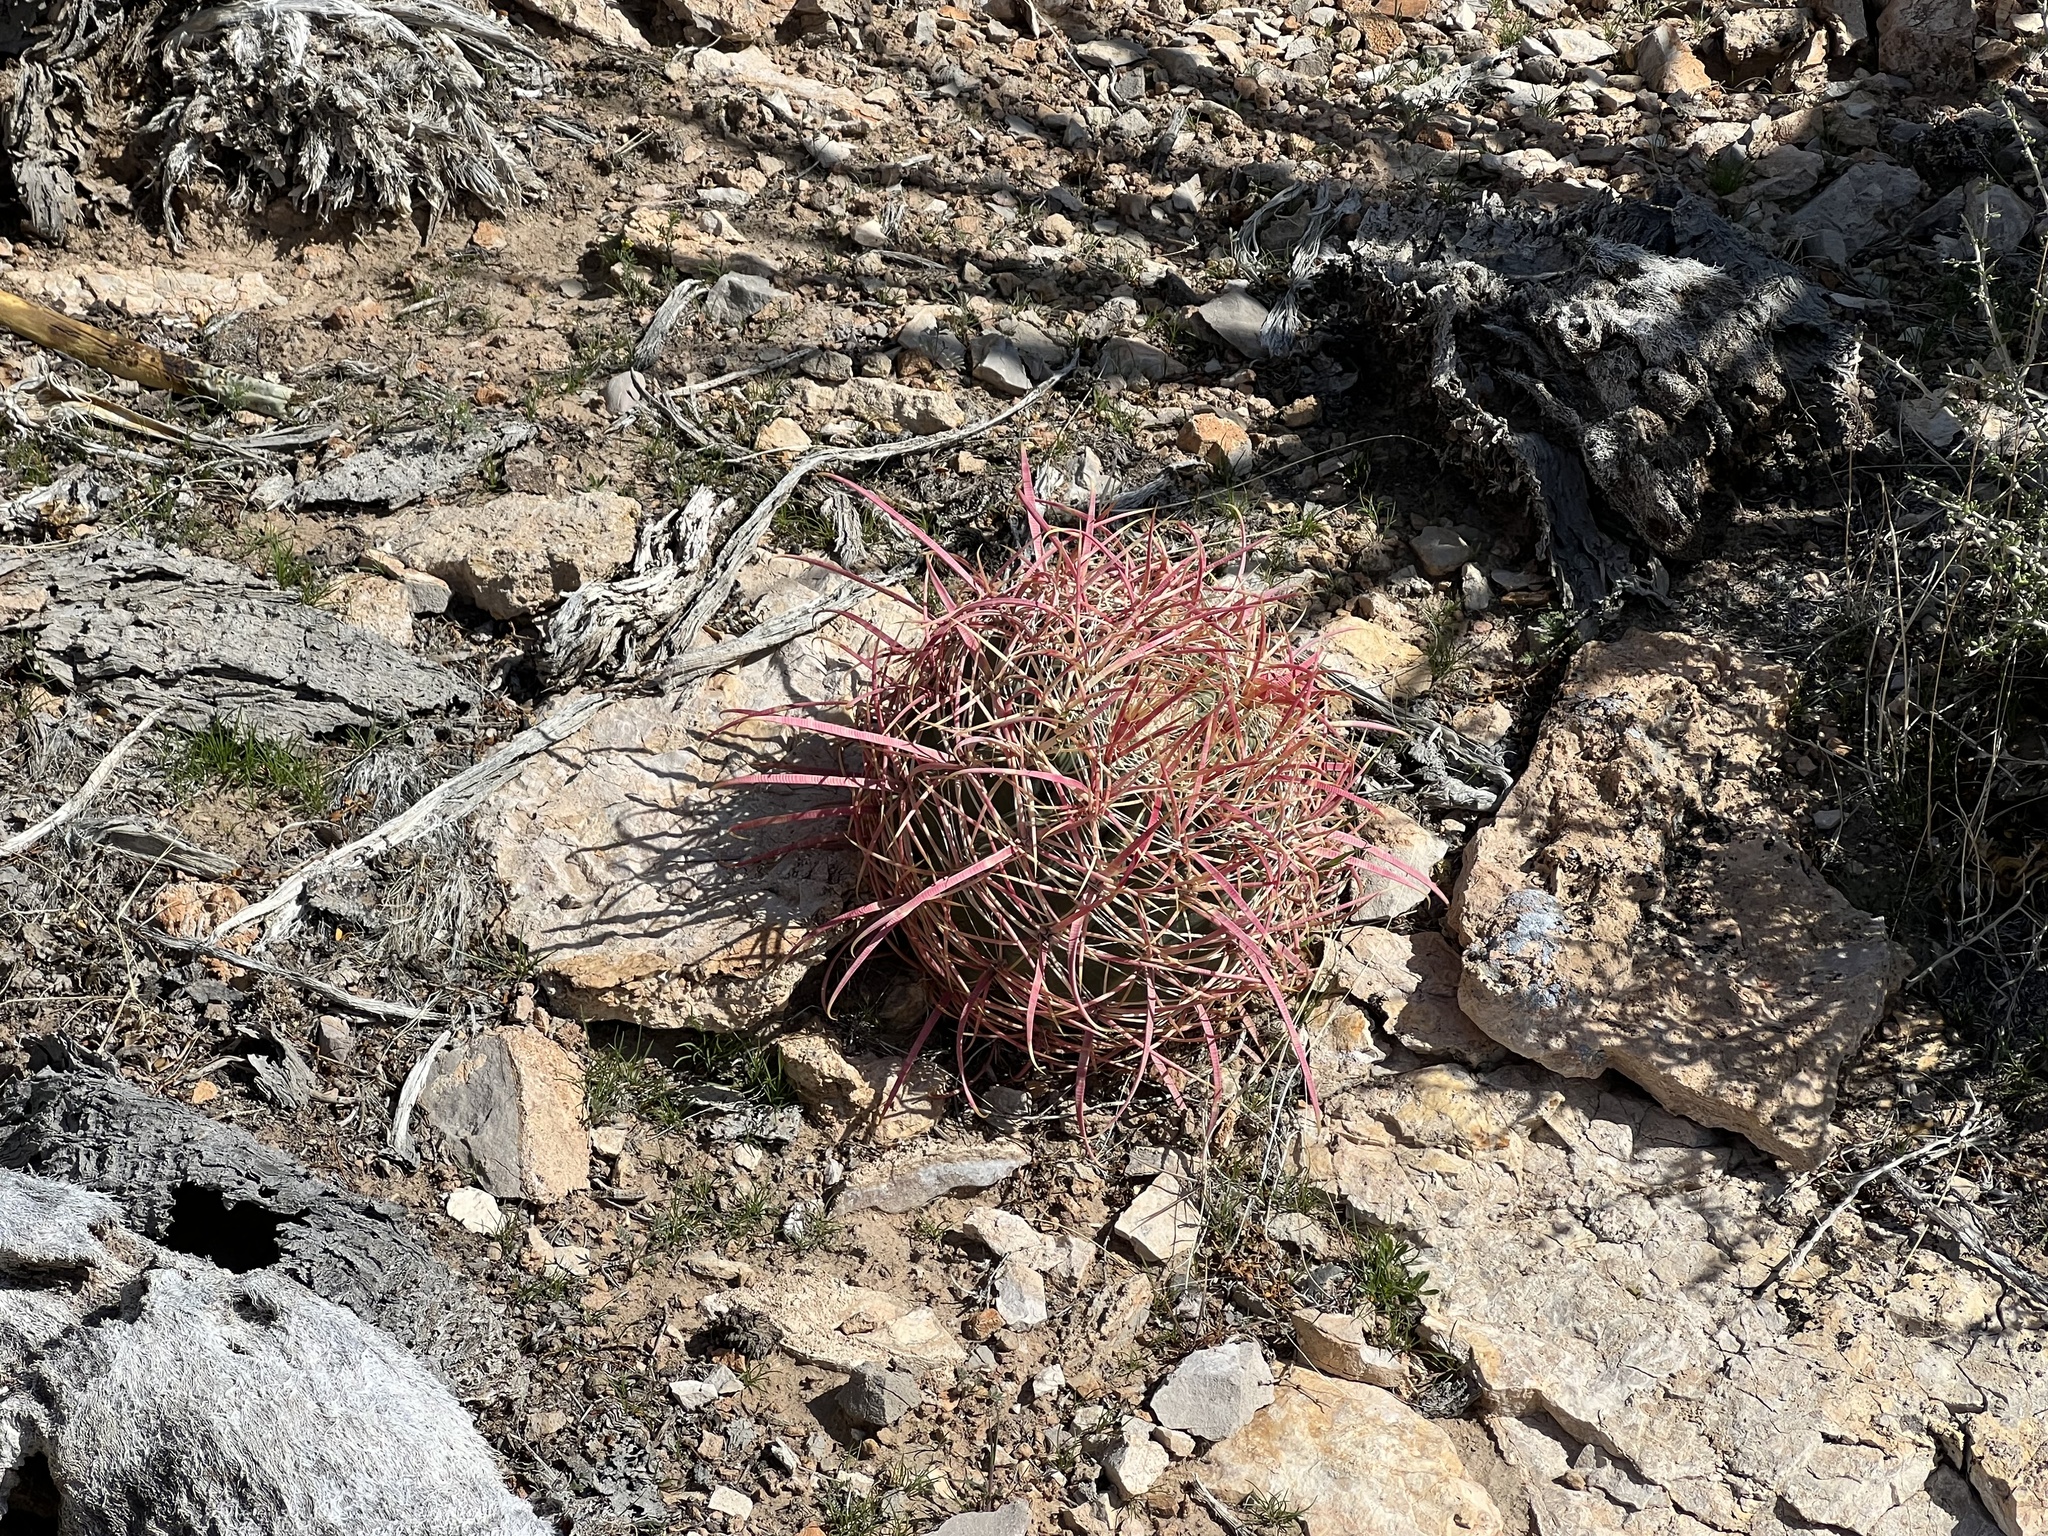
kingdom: Plantae
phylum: Tracheophyta
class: Magnoliopsida
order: Caryophyllales
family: Cactaceae
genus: Ferocactus
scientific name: Ferocactus cylindraceus
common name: California barrel cactus
